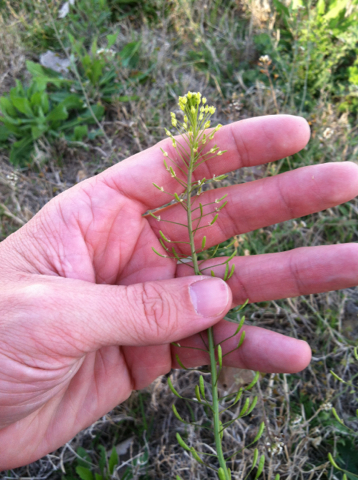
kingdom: Plantae
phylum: Tracheophyta
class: Magnoliopsida
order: Brassicales
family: Brassicaceae
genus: Descurainia
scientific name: Descurainia pinnata
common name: Western tansy mustard
